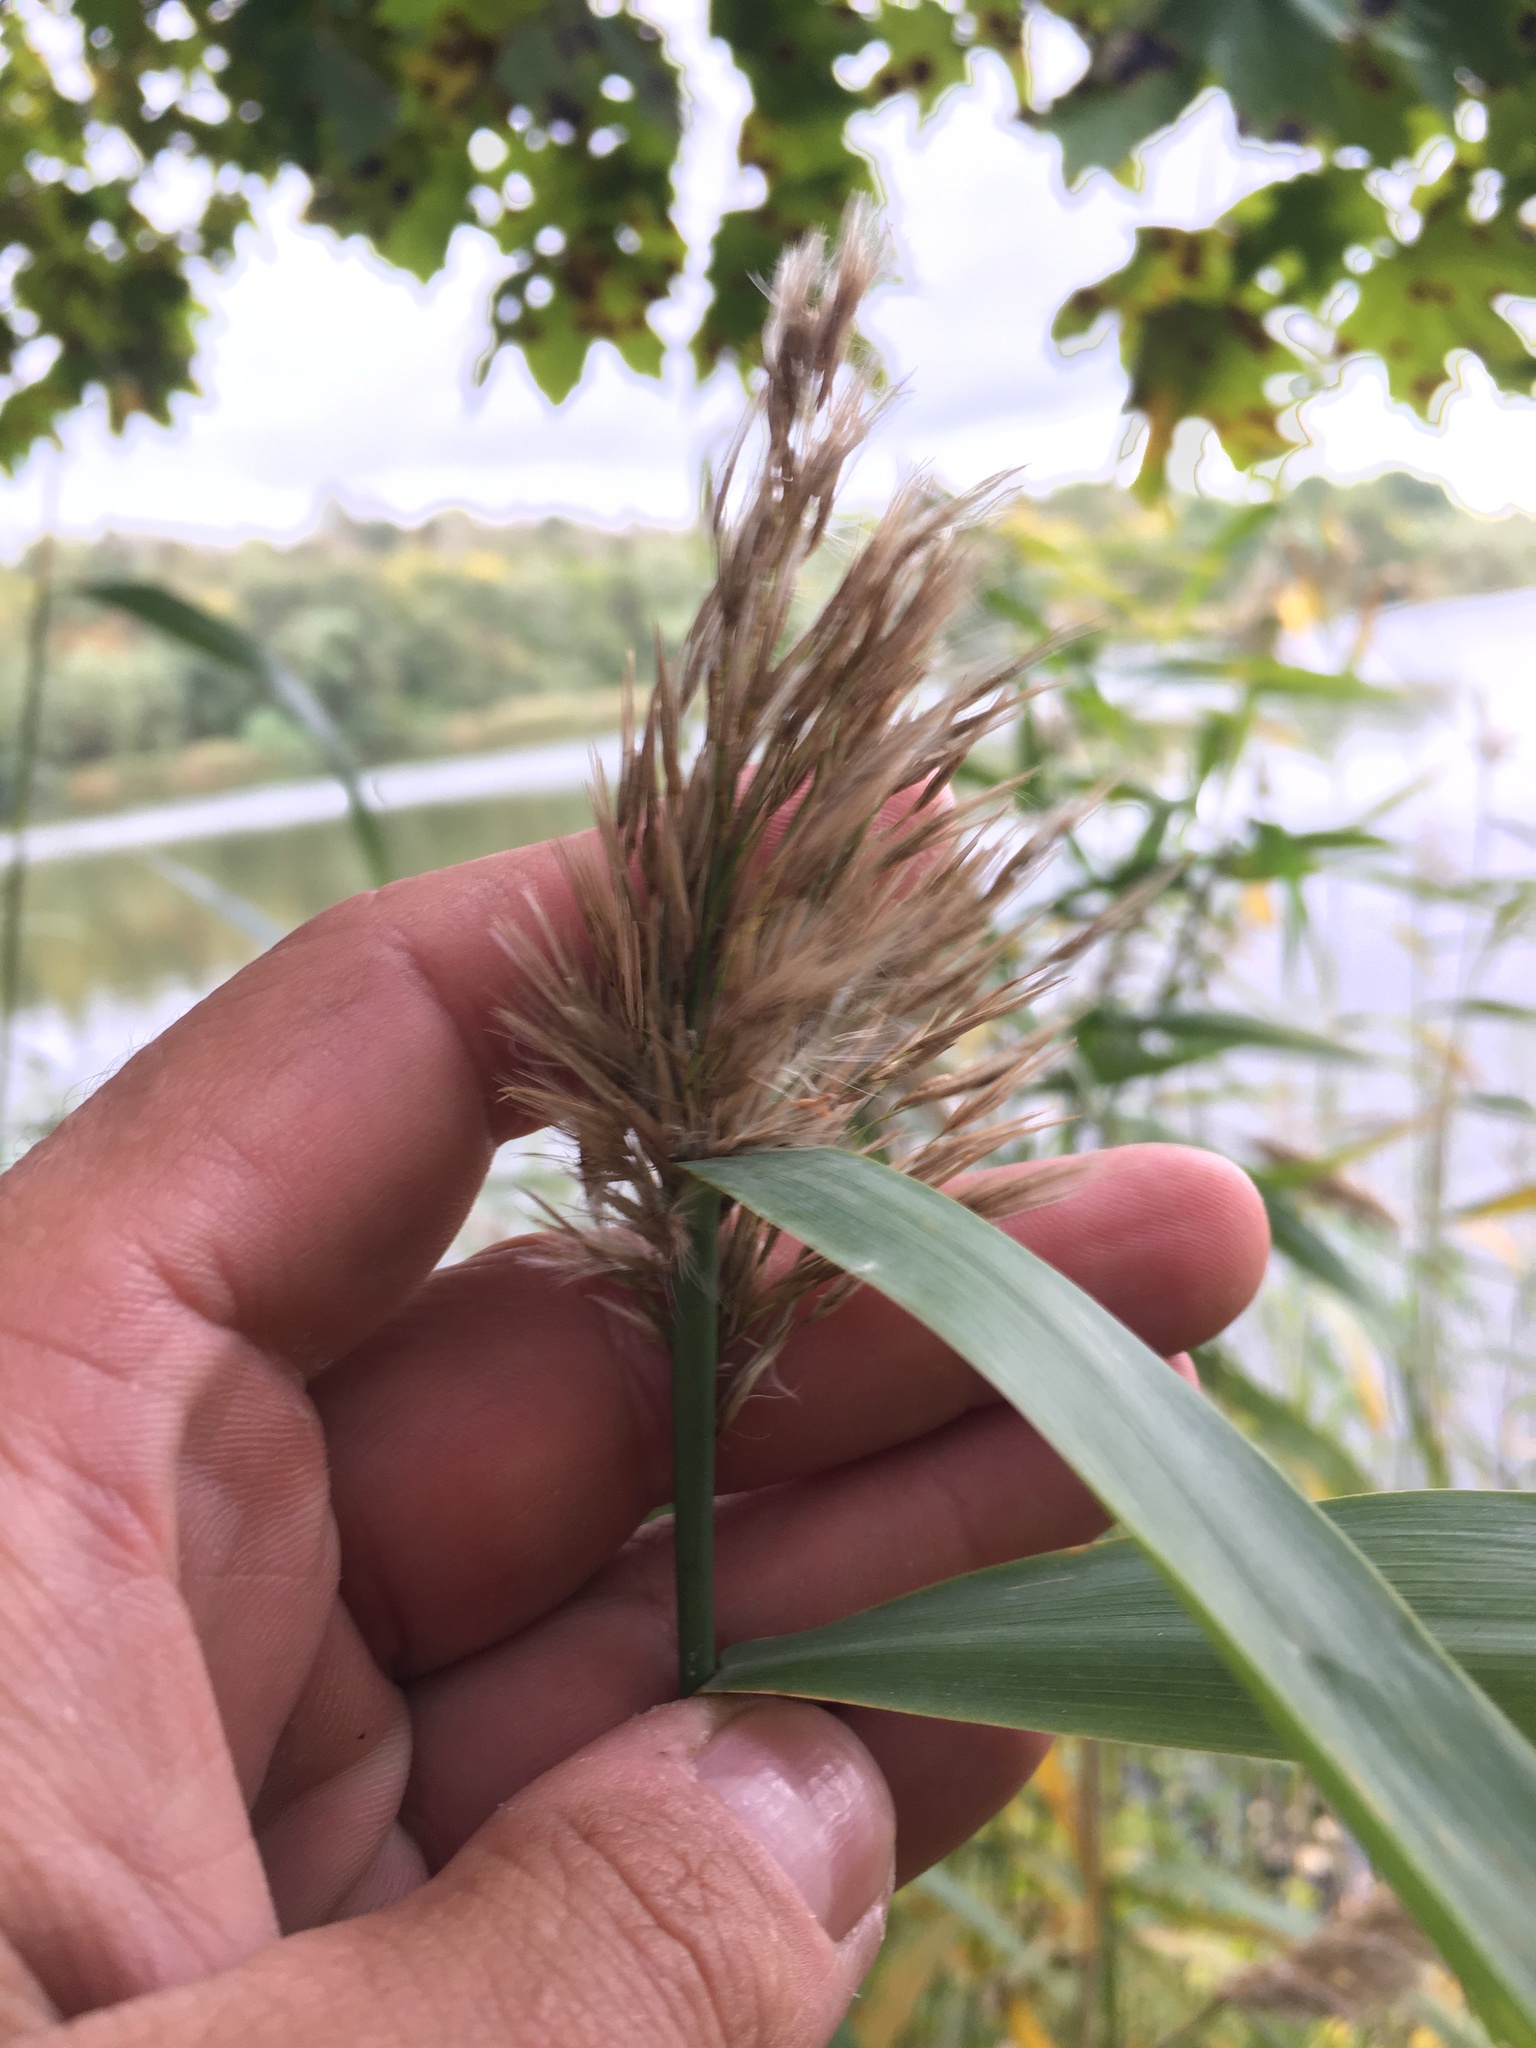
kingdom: Plantae
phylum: Tracheophyta
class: Liliopsida
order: Poales
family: Poaceae
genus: Phragmites
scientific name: Phragmites australis
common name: Common reed
